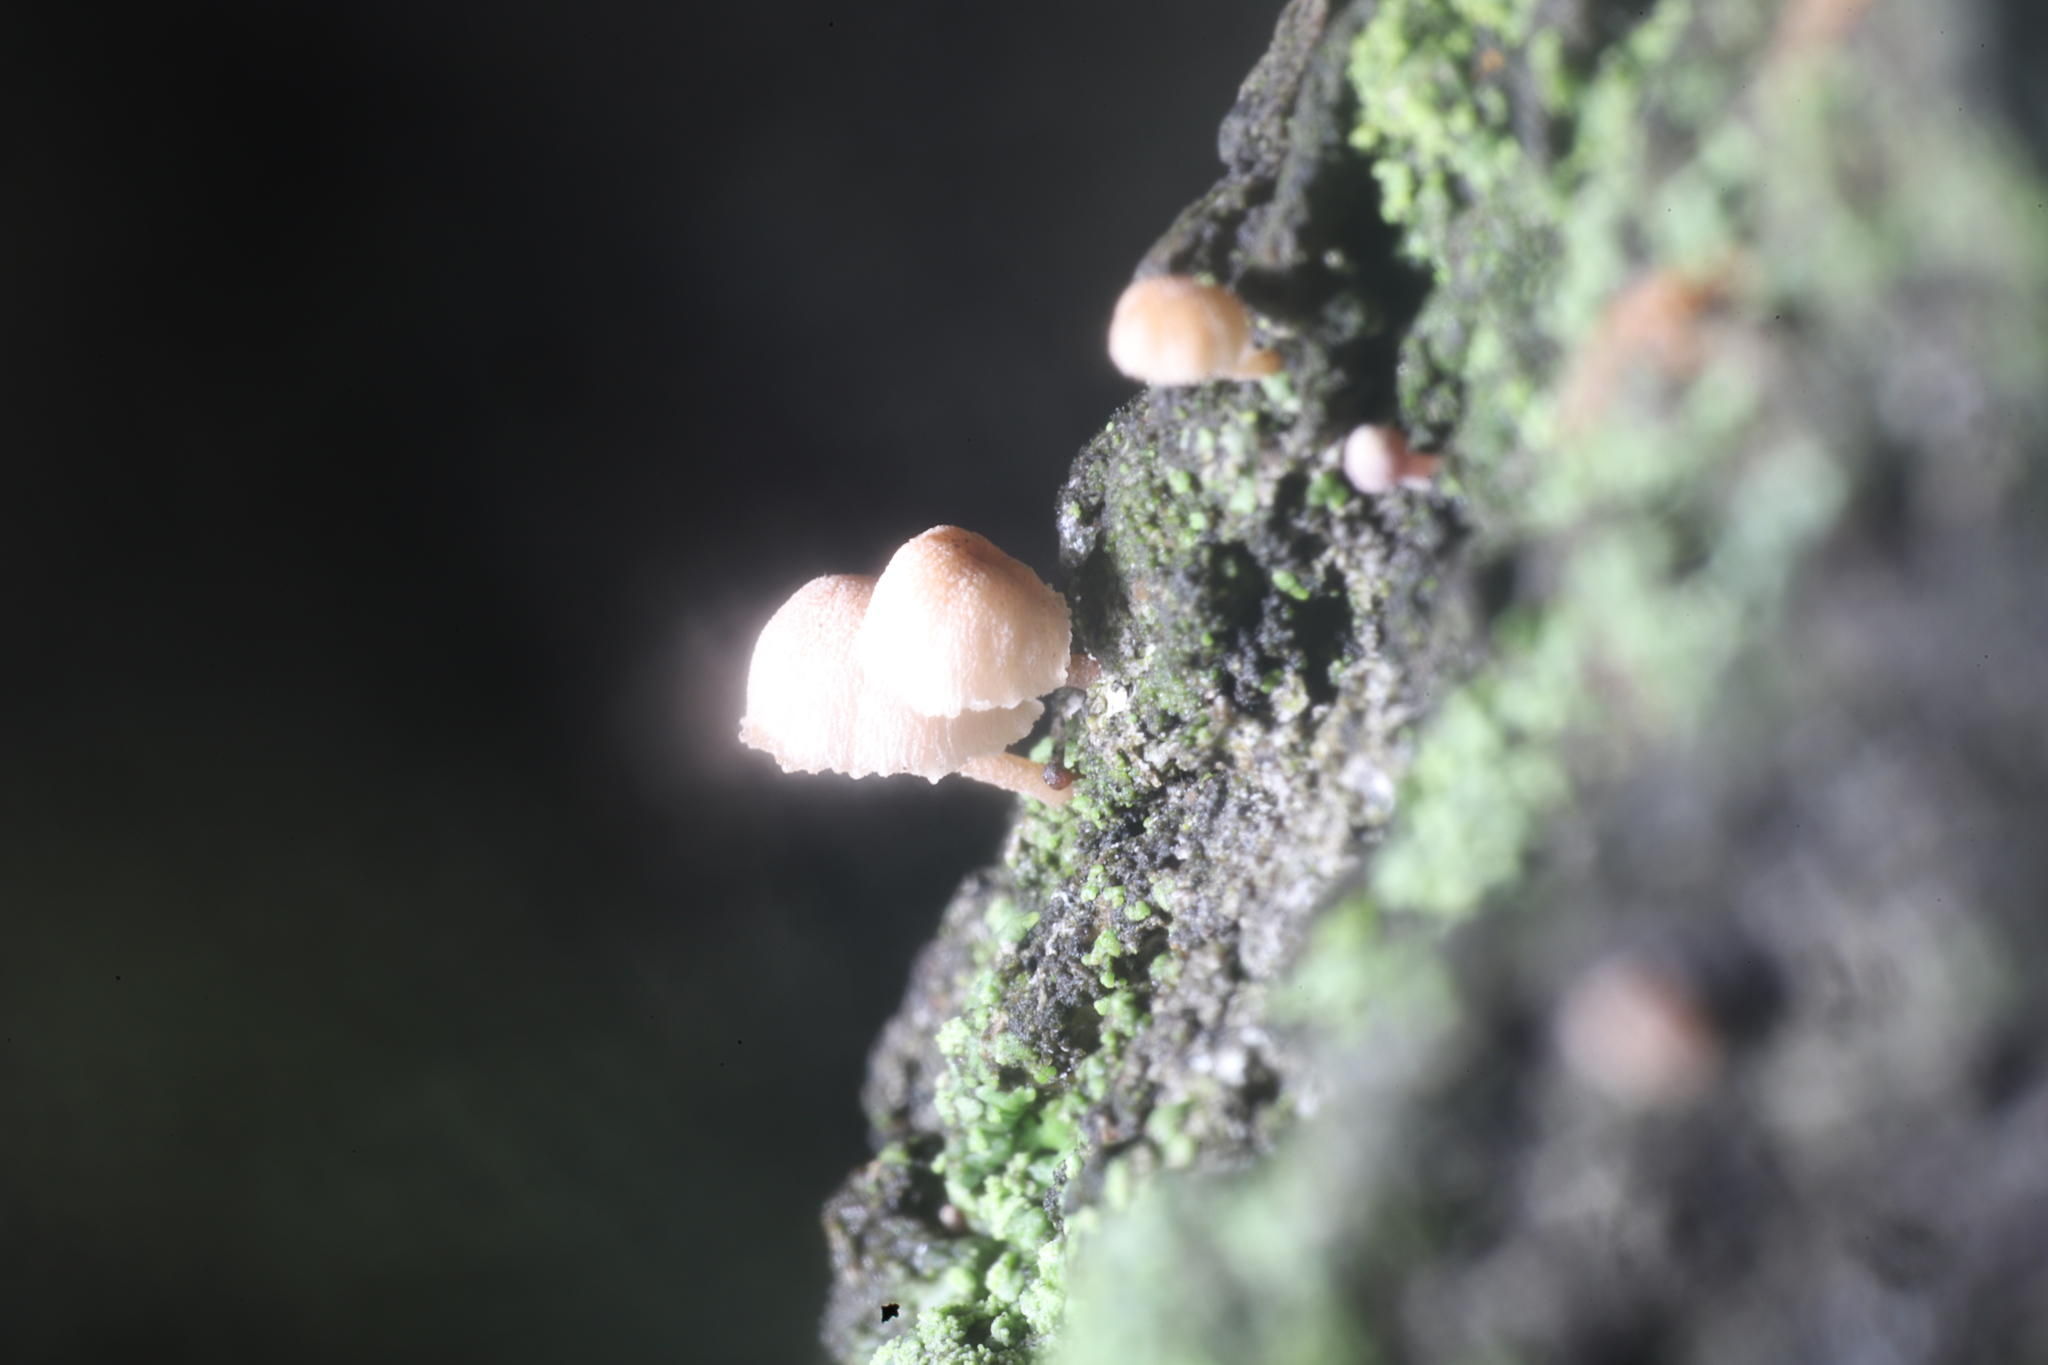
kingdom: Fungi
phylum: Basidiomycota
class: Agaricomycetes
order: Agaricales
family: Mycenaceae
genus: Mycena
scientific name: Mycena meliigena
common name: Mauve bonnet
